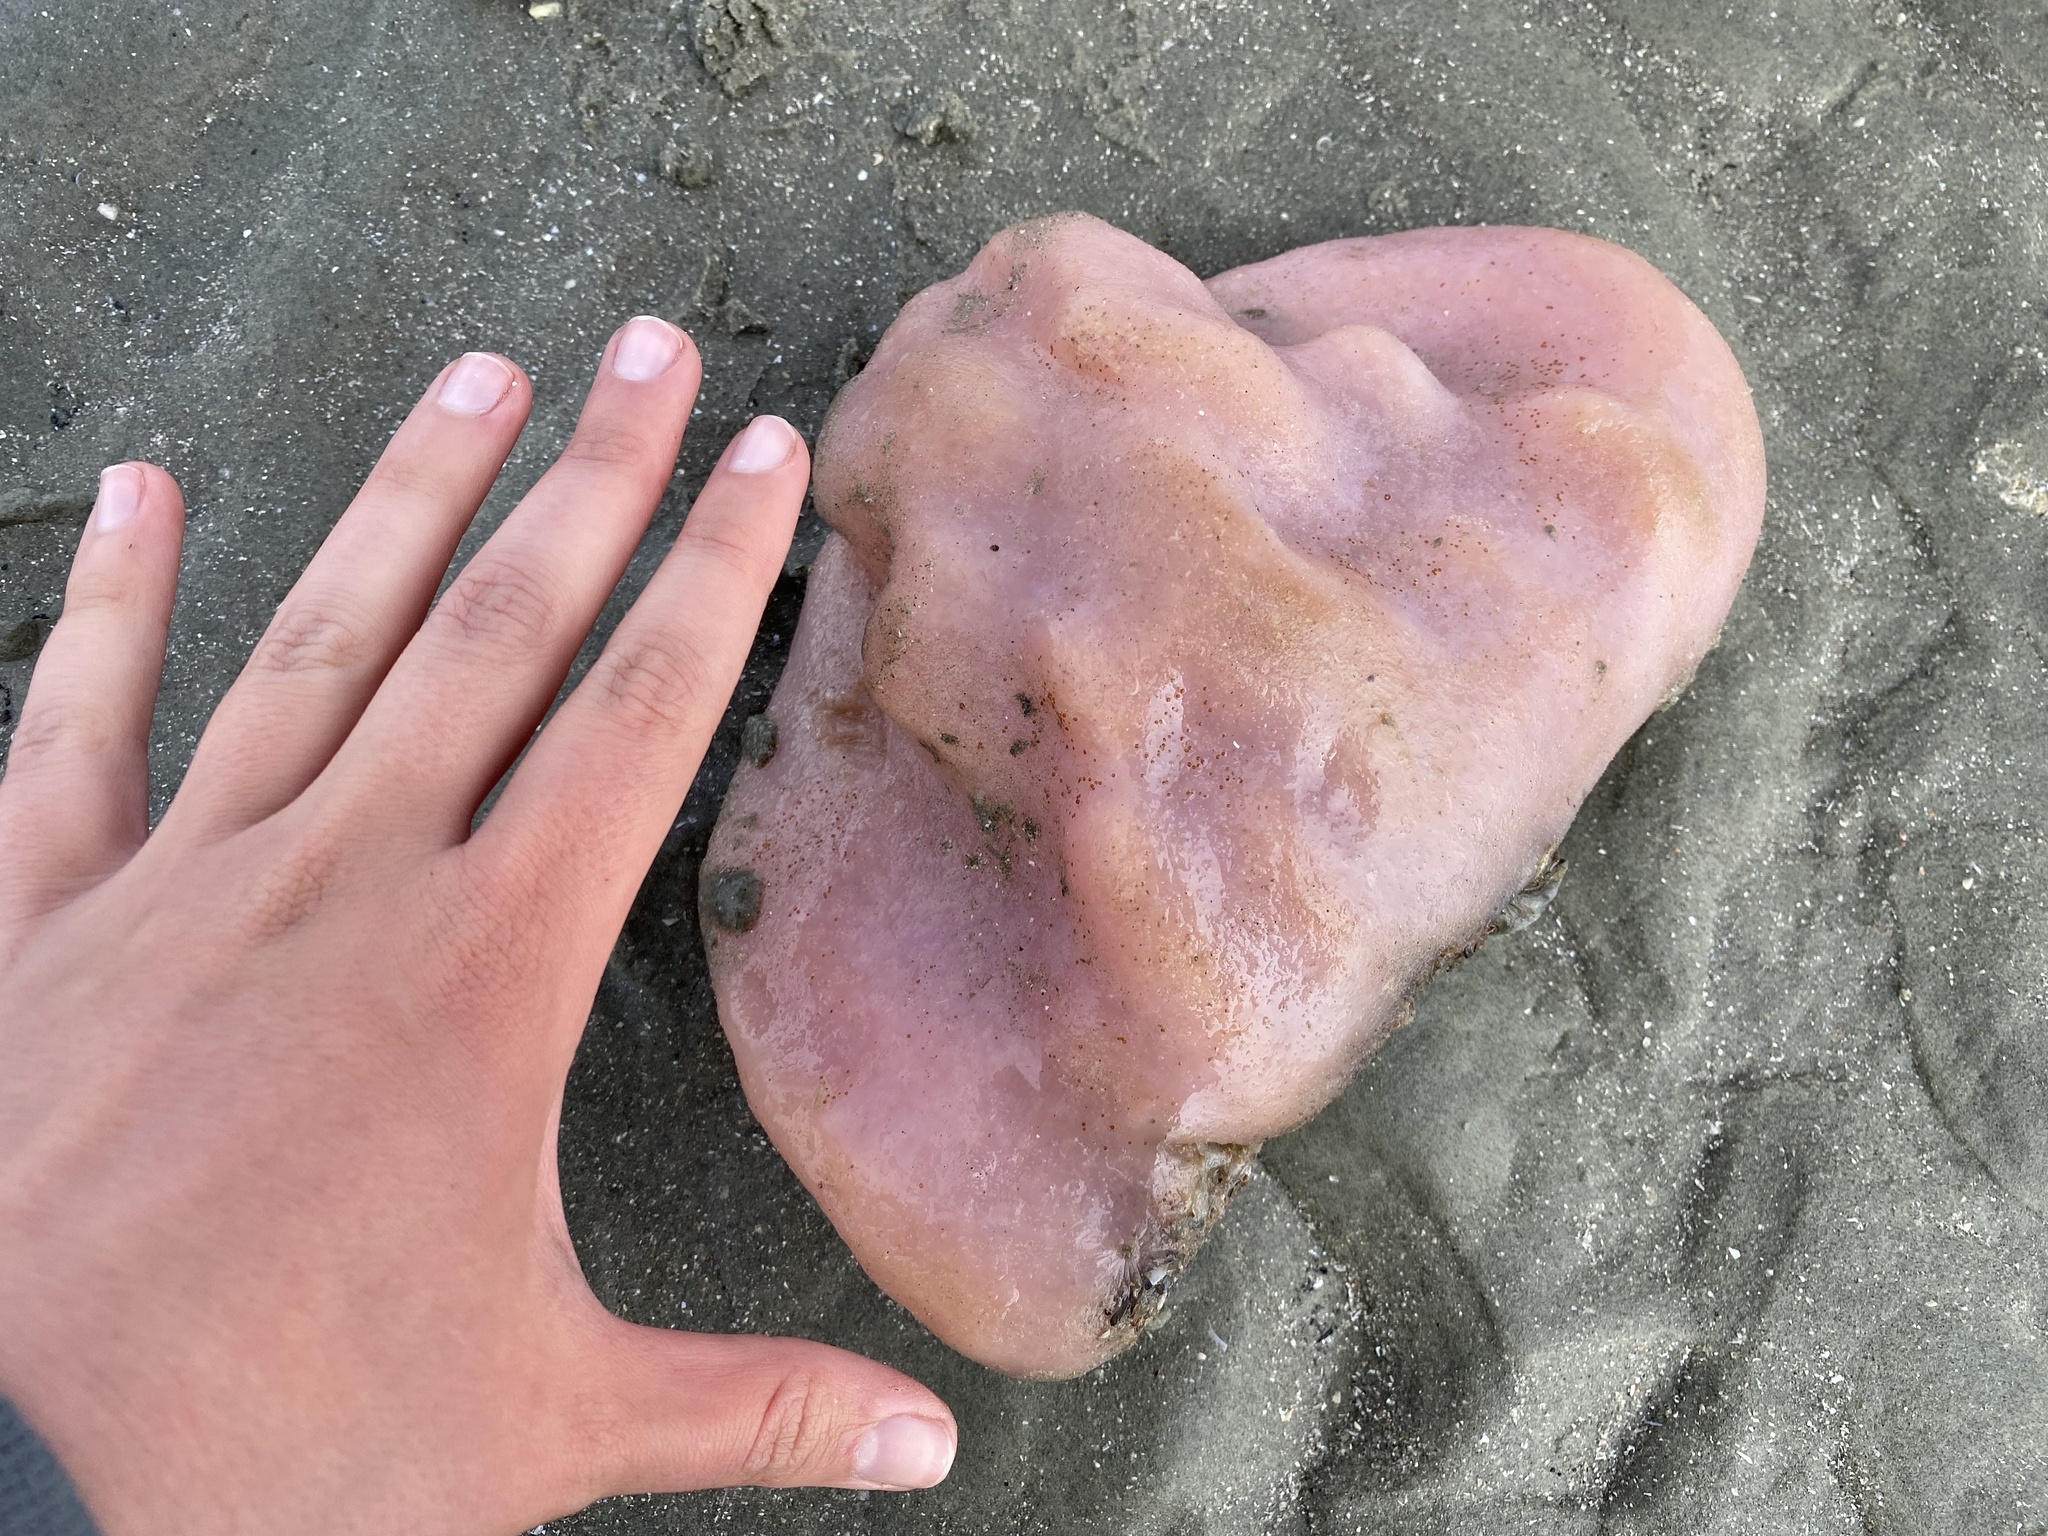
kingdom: Animalia
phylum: Chordata
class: Ascidiacea
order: Aplousobranchia
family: Polyclinidae
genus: Aplidium
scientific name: Aplidium stellatum
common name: Atlantic sea pork
